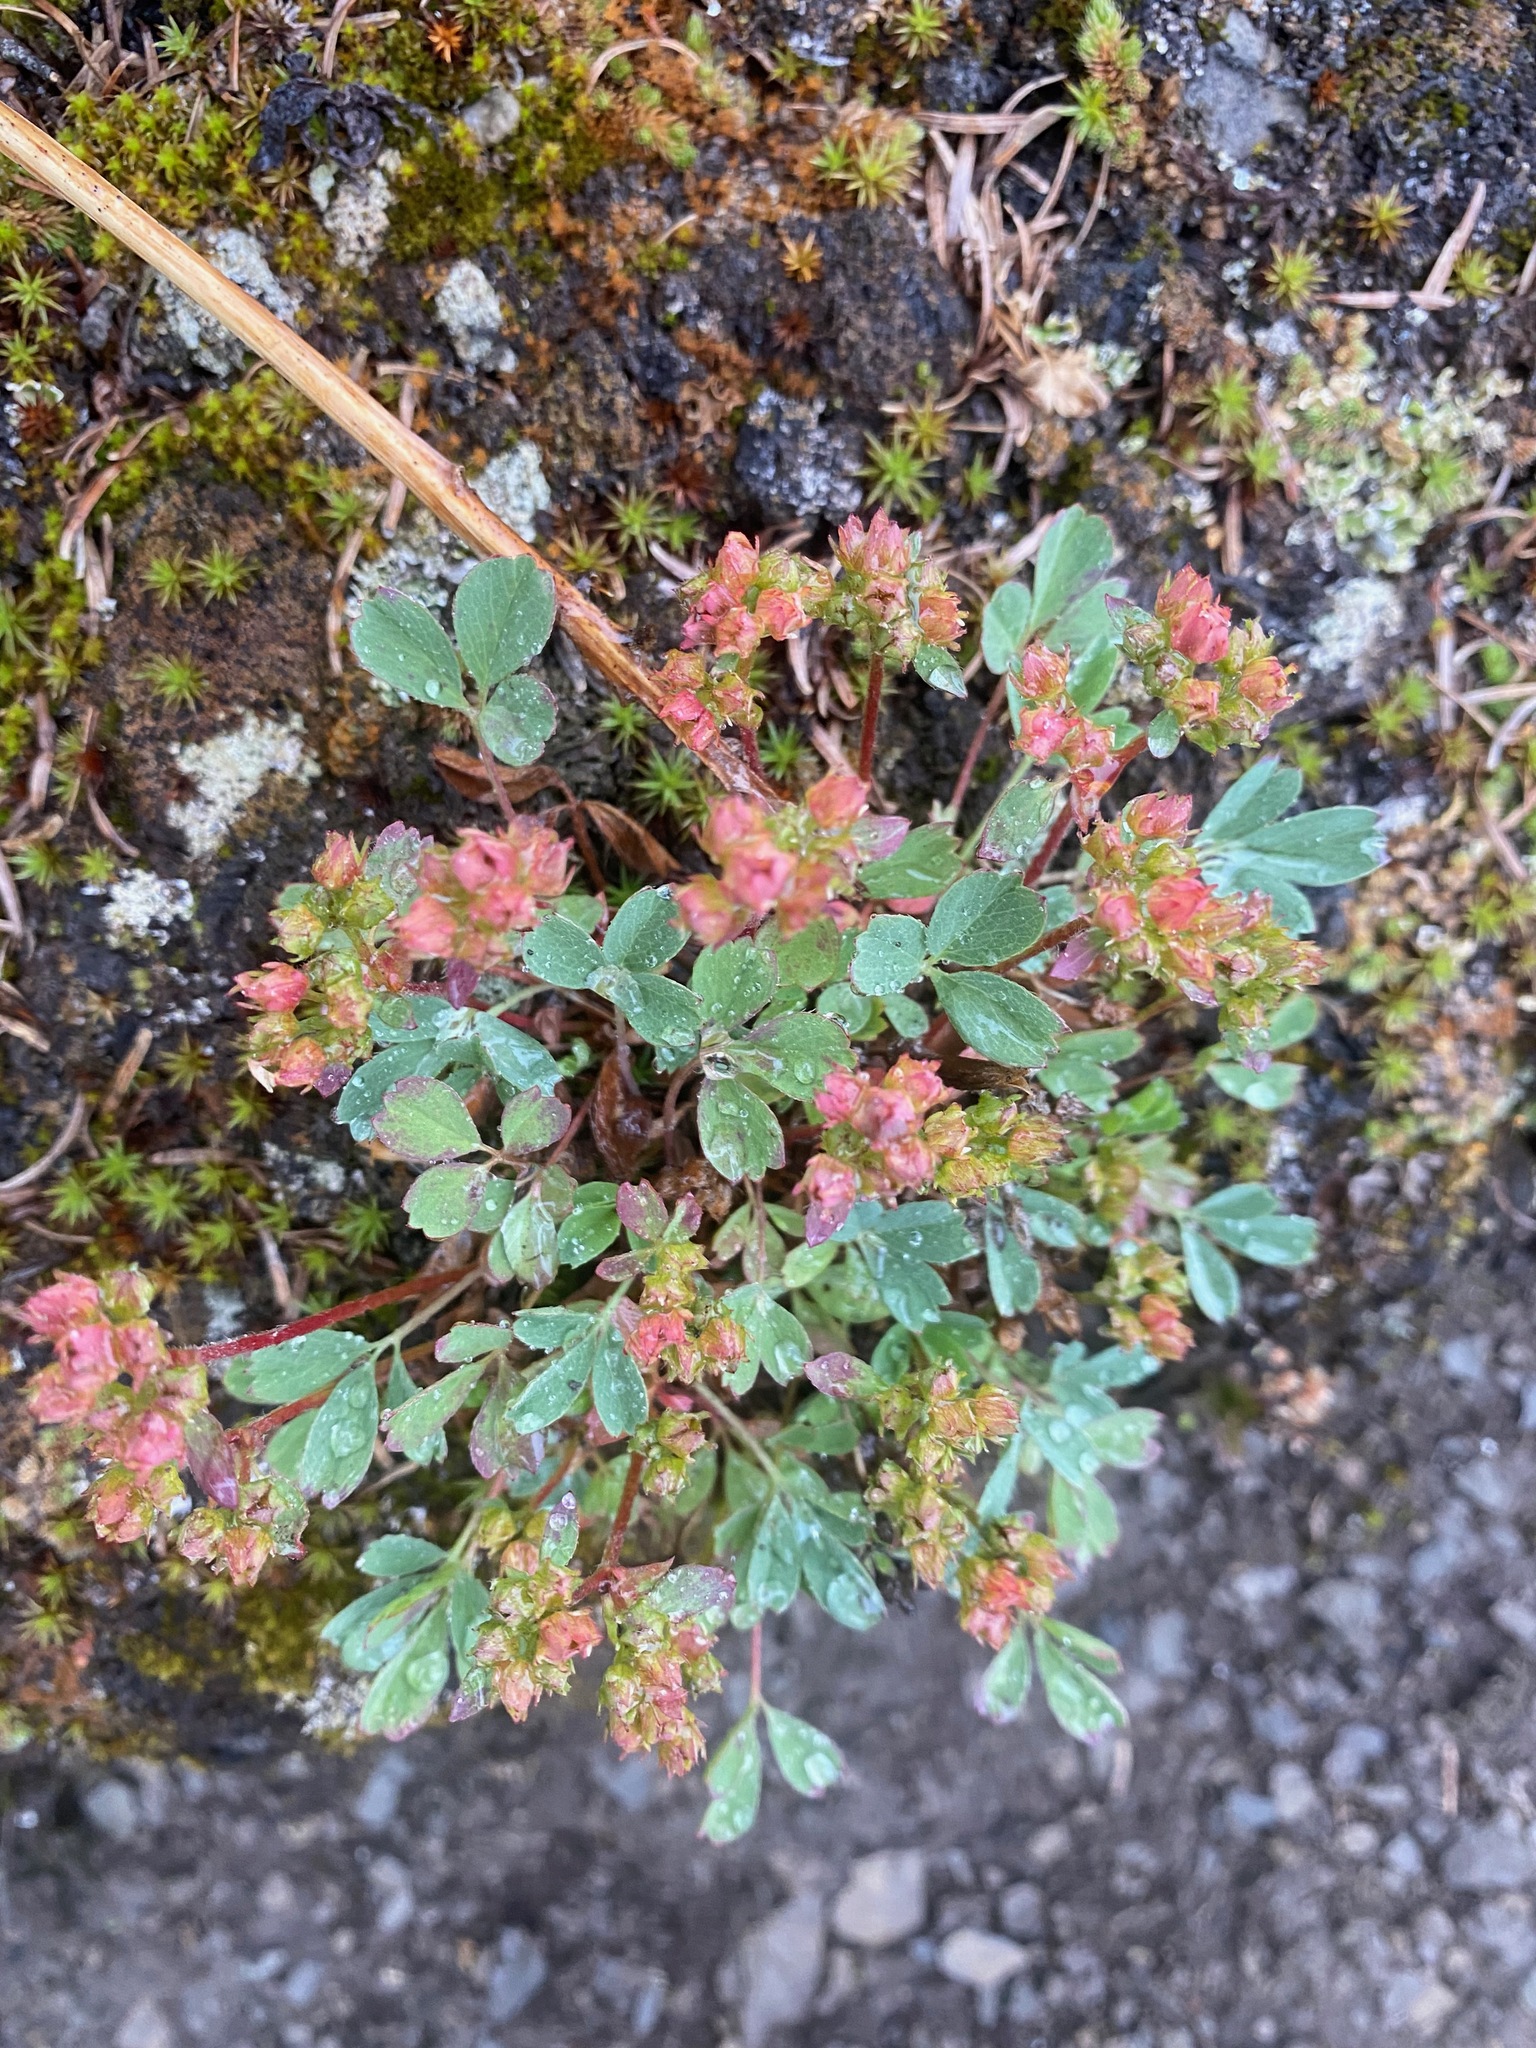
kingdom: Plantae
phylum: Tracheophyta
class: Magnoliopsida
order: Rosales
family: Rosaceae
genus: Sibbaldia
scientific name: Sibbaldia procumbens
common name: Creeping sibbaldia
